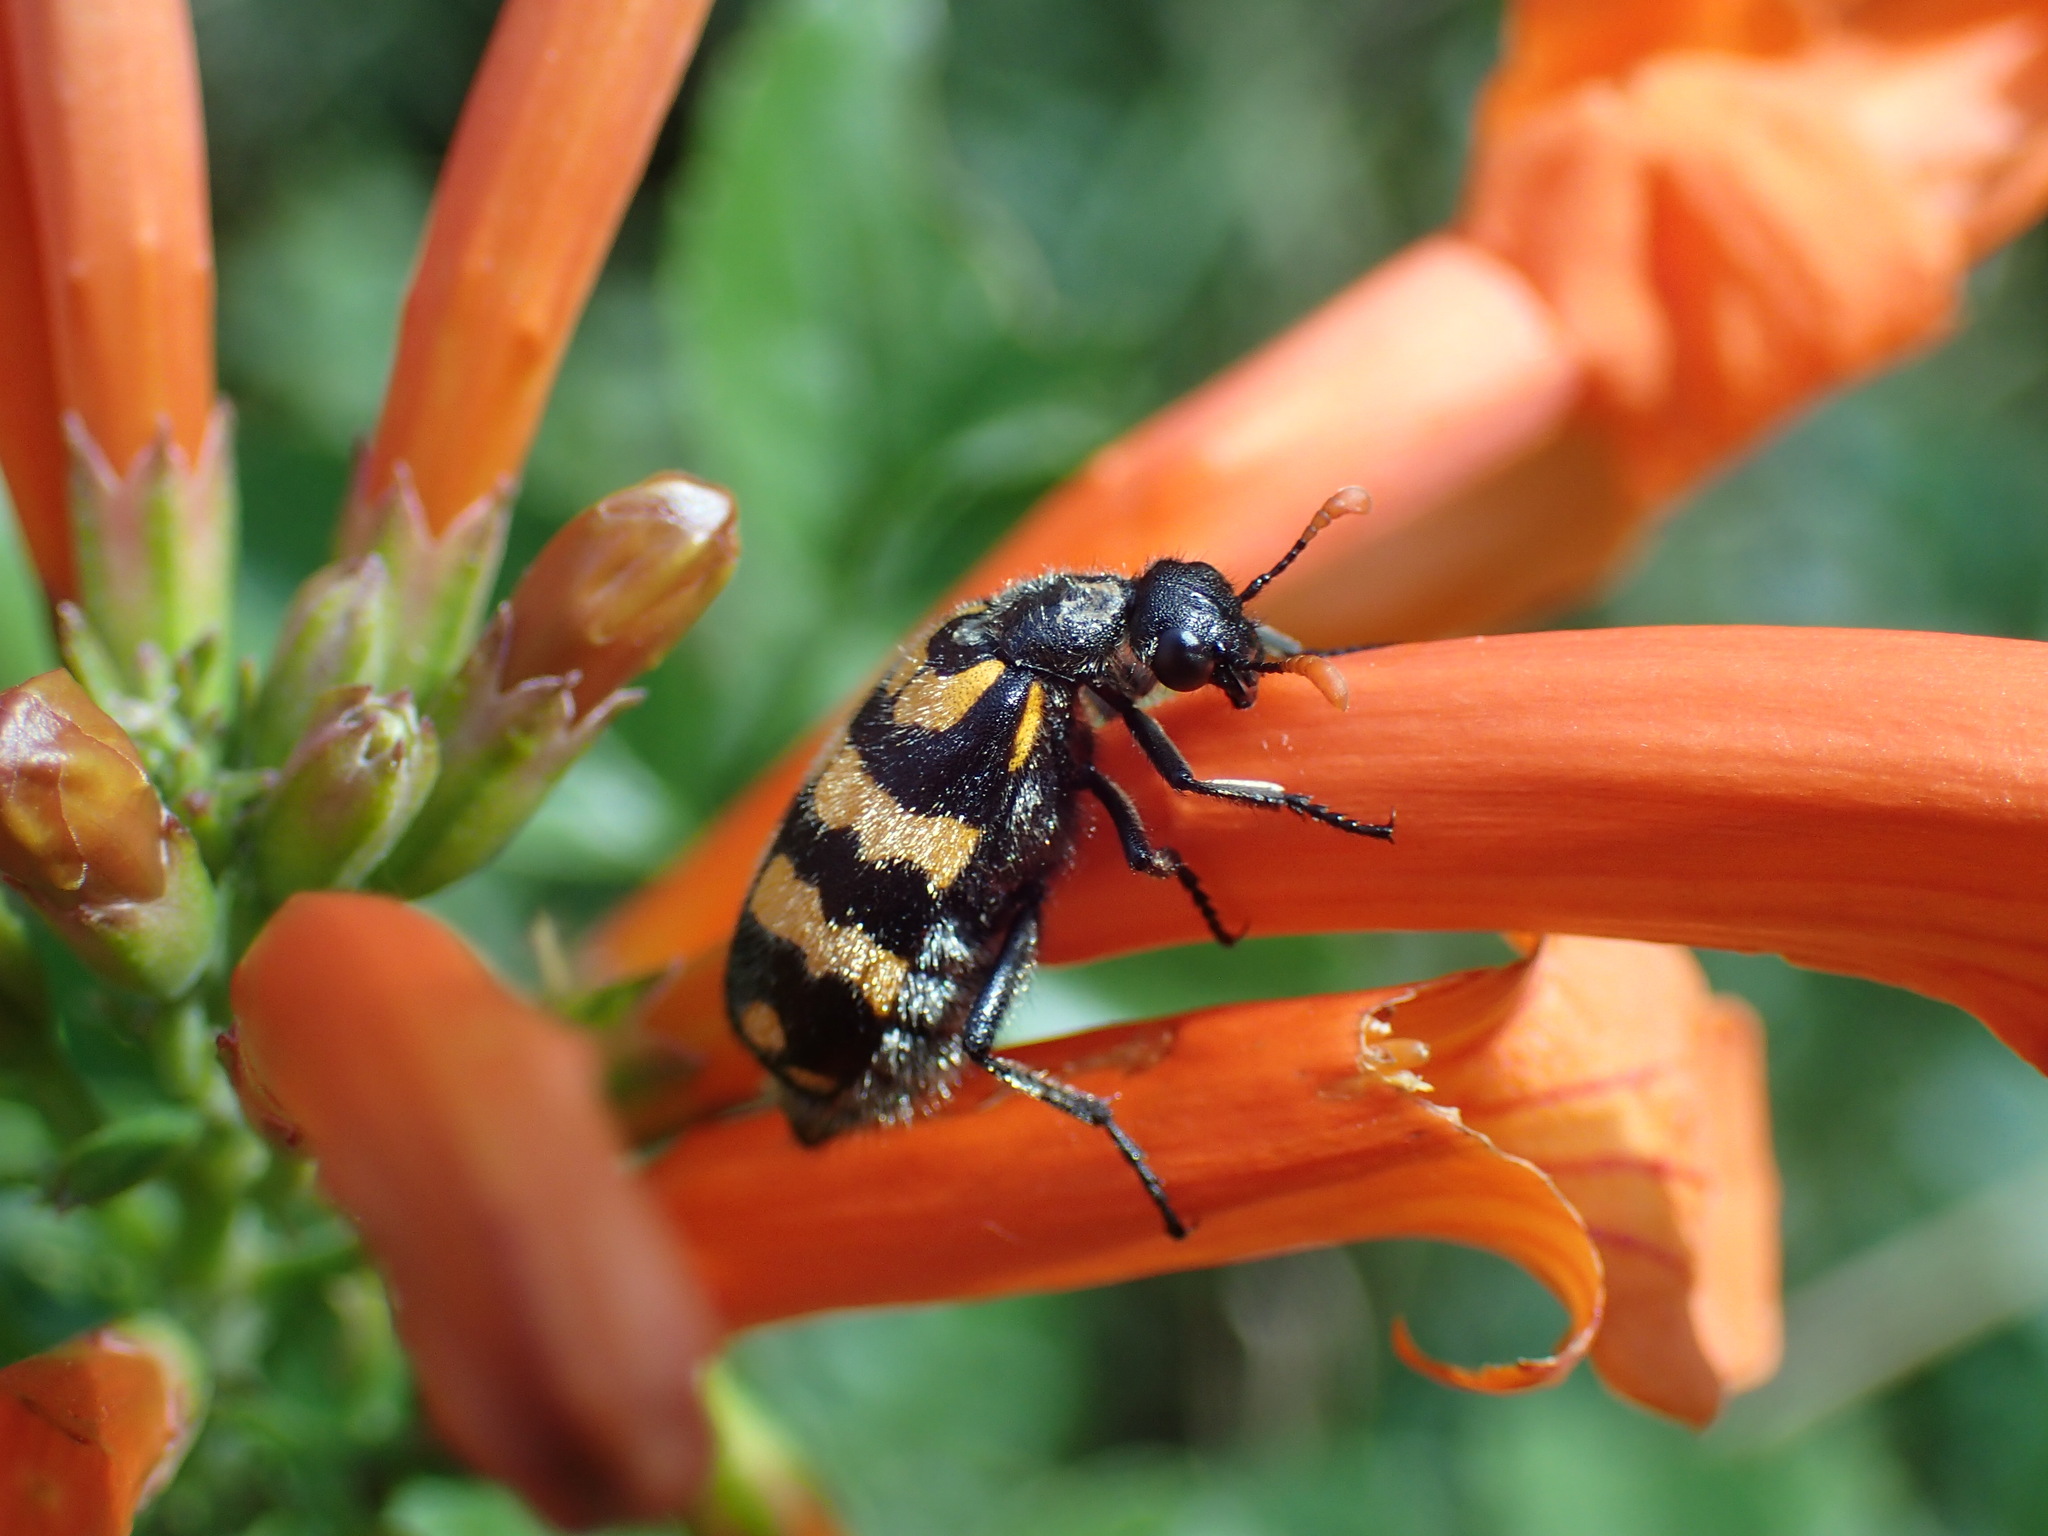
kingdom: Animalia
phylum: Arthropoda
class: Insecta
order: Coleoptera
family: Meloidae
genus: Hycleus
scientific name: Hycleus pilosus
